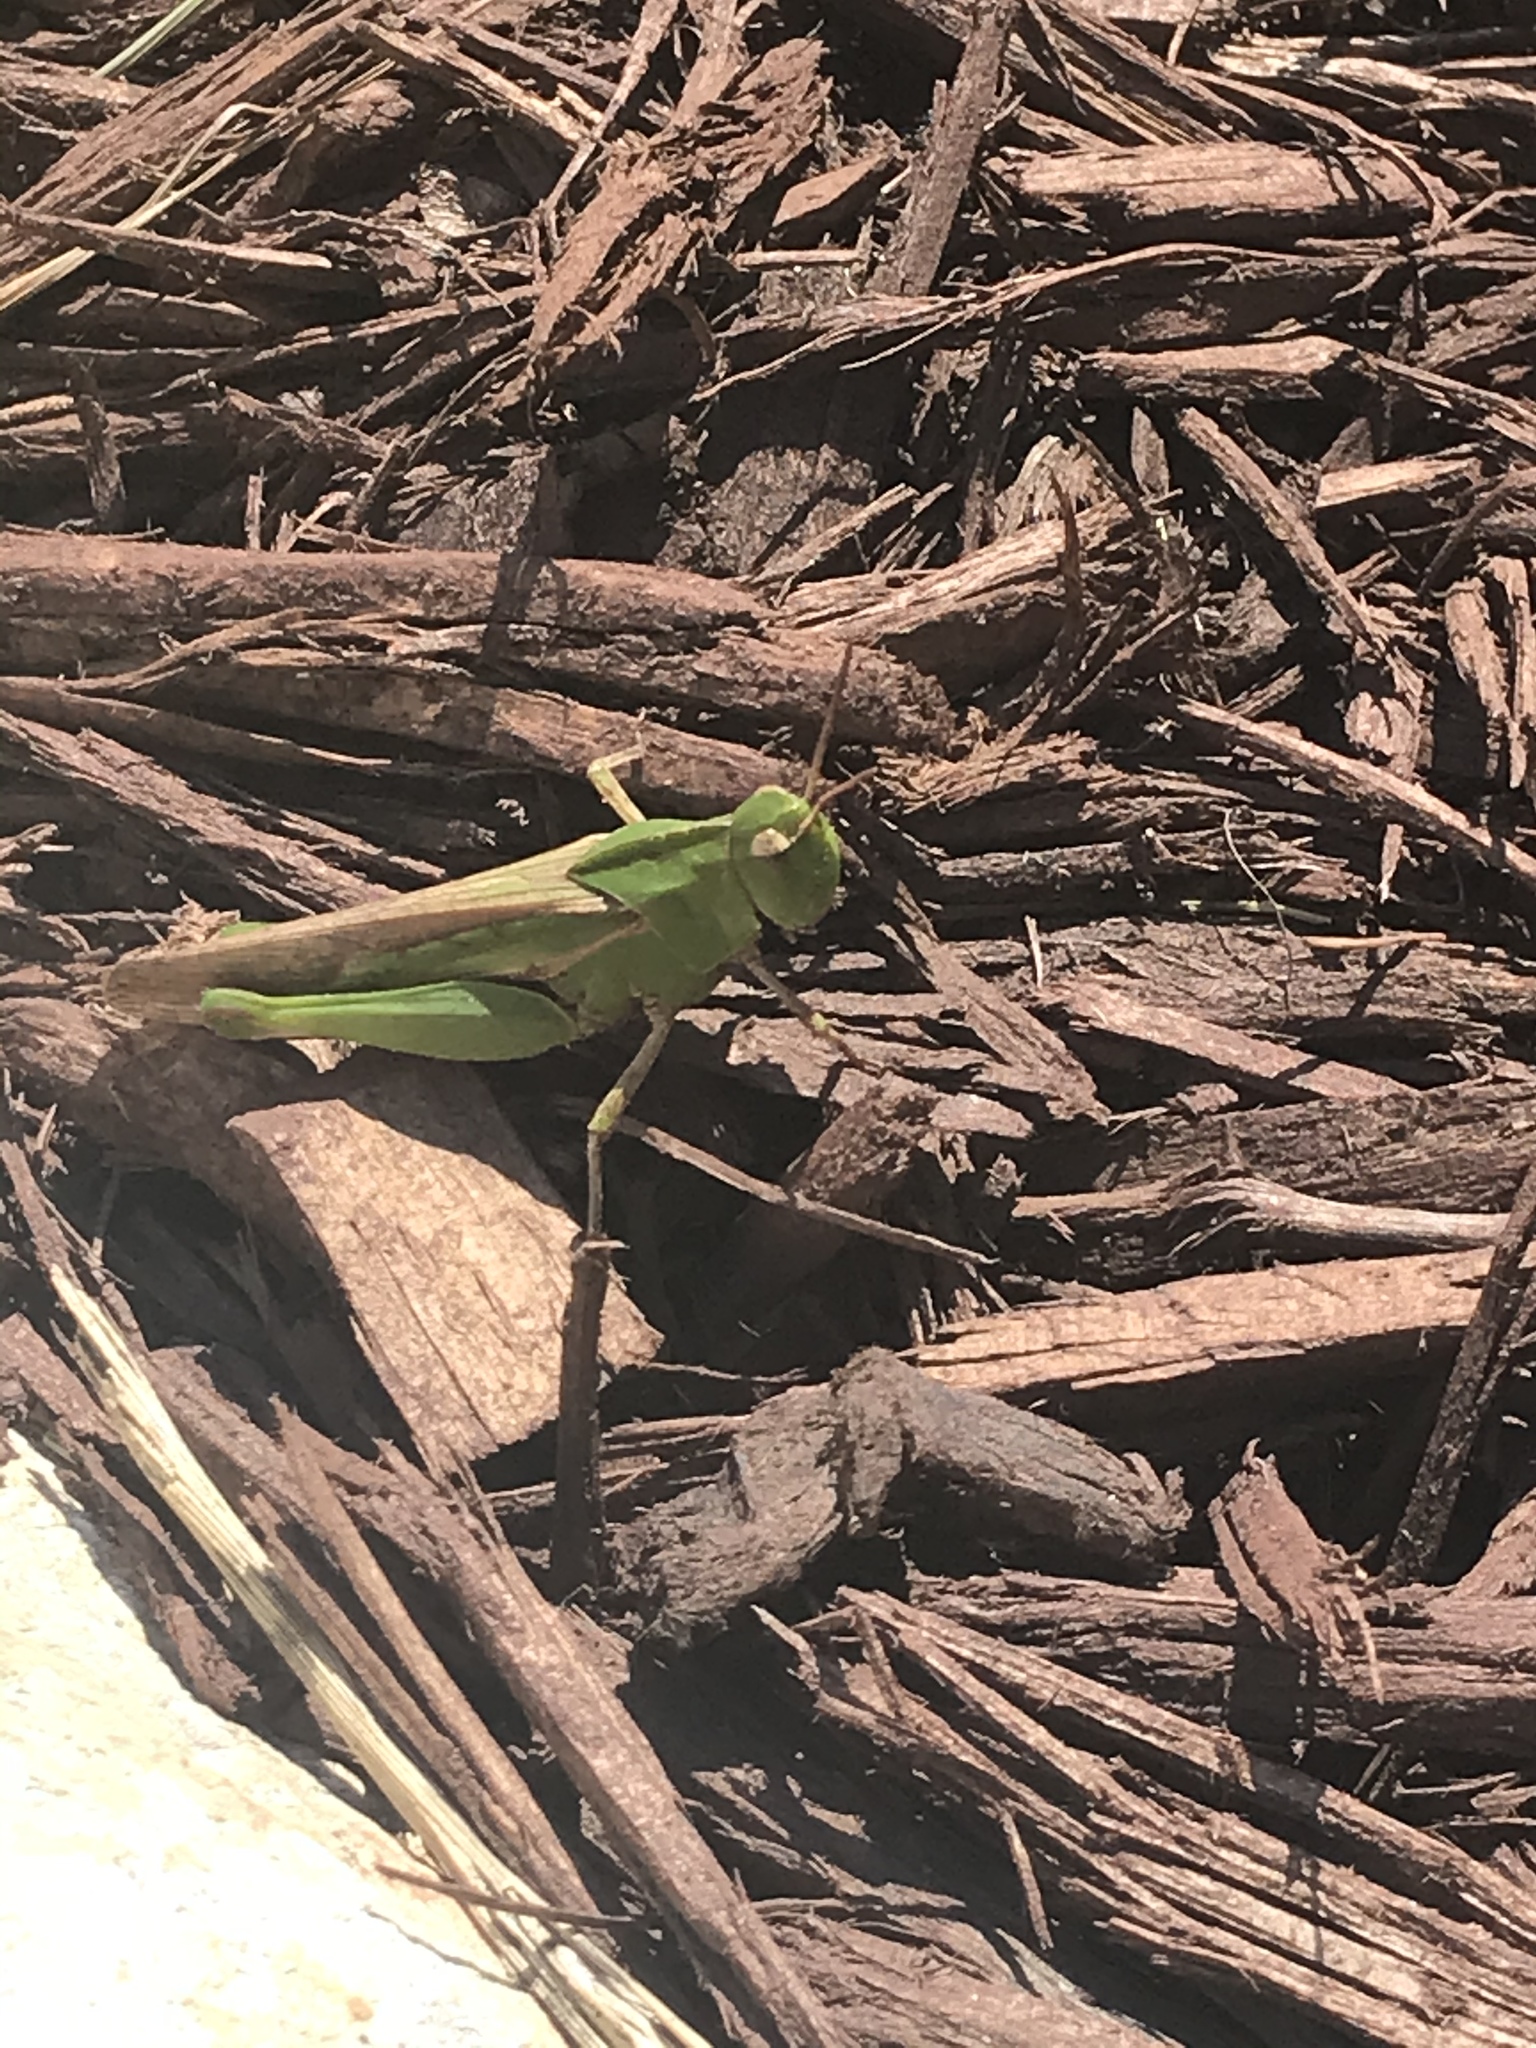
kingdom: Animalia
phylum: Arthropoda
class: Insecta
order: Orthoptera
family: Acrididae
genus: Chortophaga
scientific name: Chortophaga viridifasciata
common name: Green-striped grasshopper
